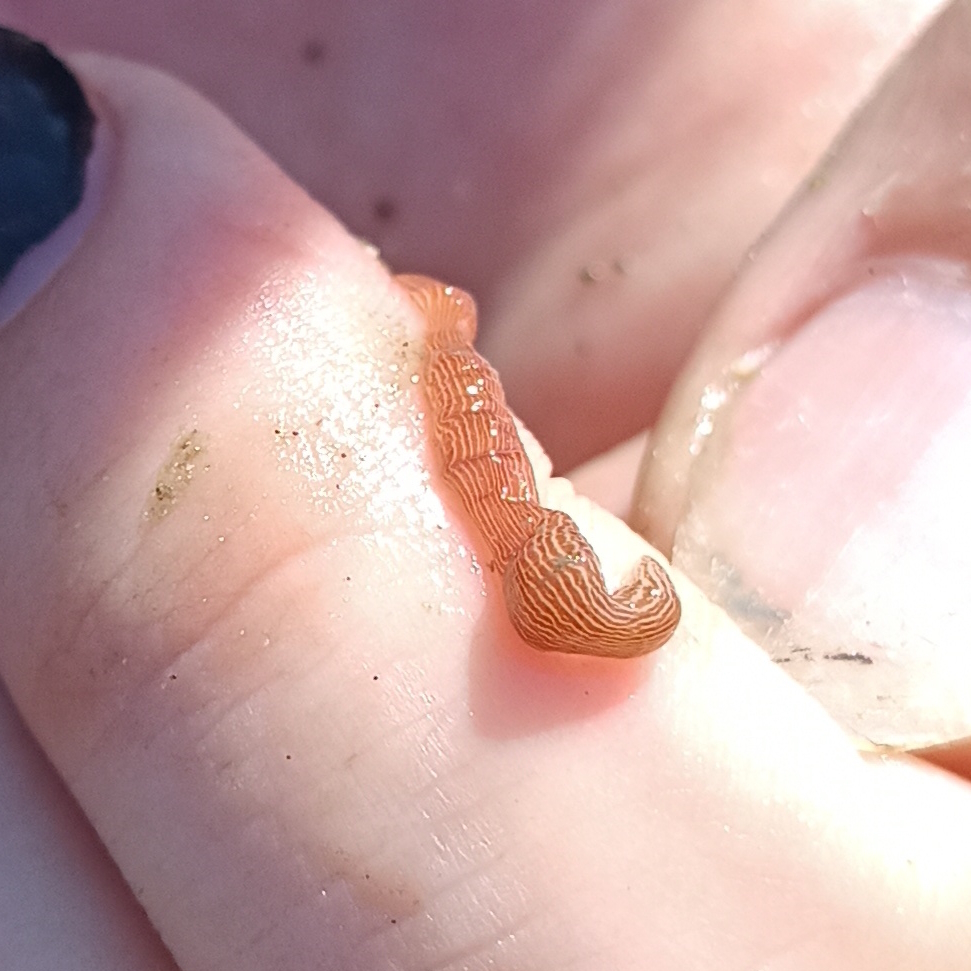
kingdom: Animalia
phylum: Nemertea
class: Pilidiophora
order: Heteronemertea
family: Valenciniidae
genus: Baseodiscus
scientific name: Baseodiscus delineatus
